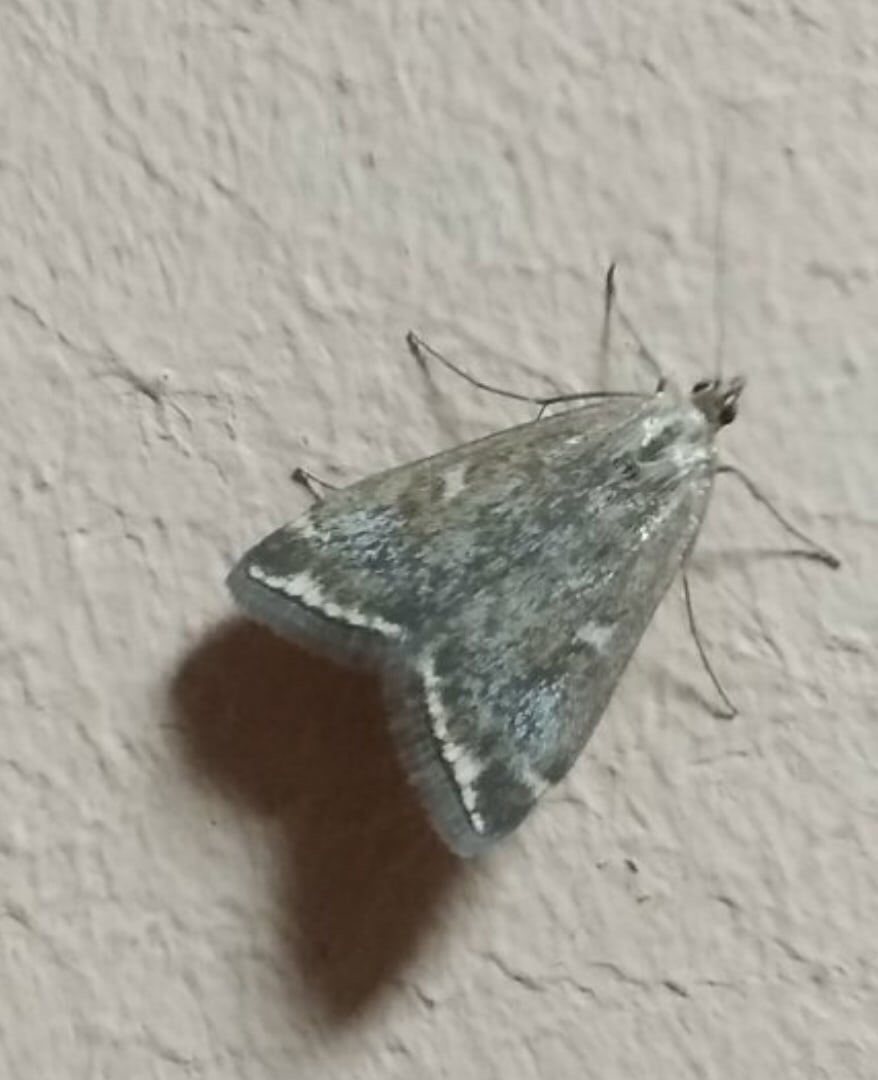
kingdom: Animalia
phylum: Arthropoda
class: Insecta
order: Lepidoptera
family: Crambidae
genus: Loxostege
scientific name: Loxostege sticticalis
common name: Crambid moth
